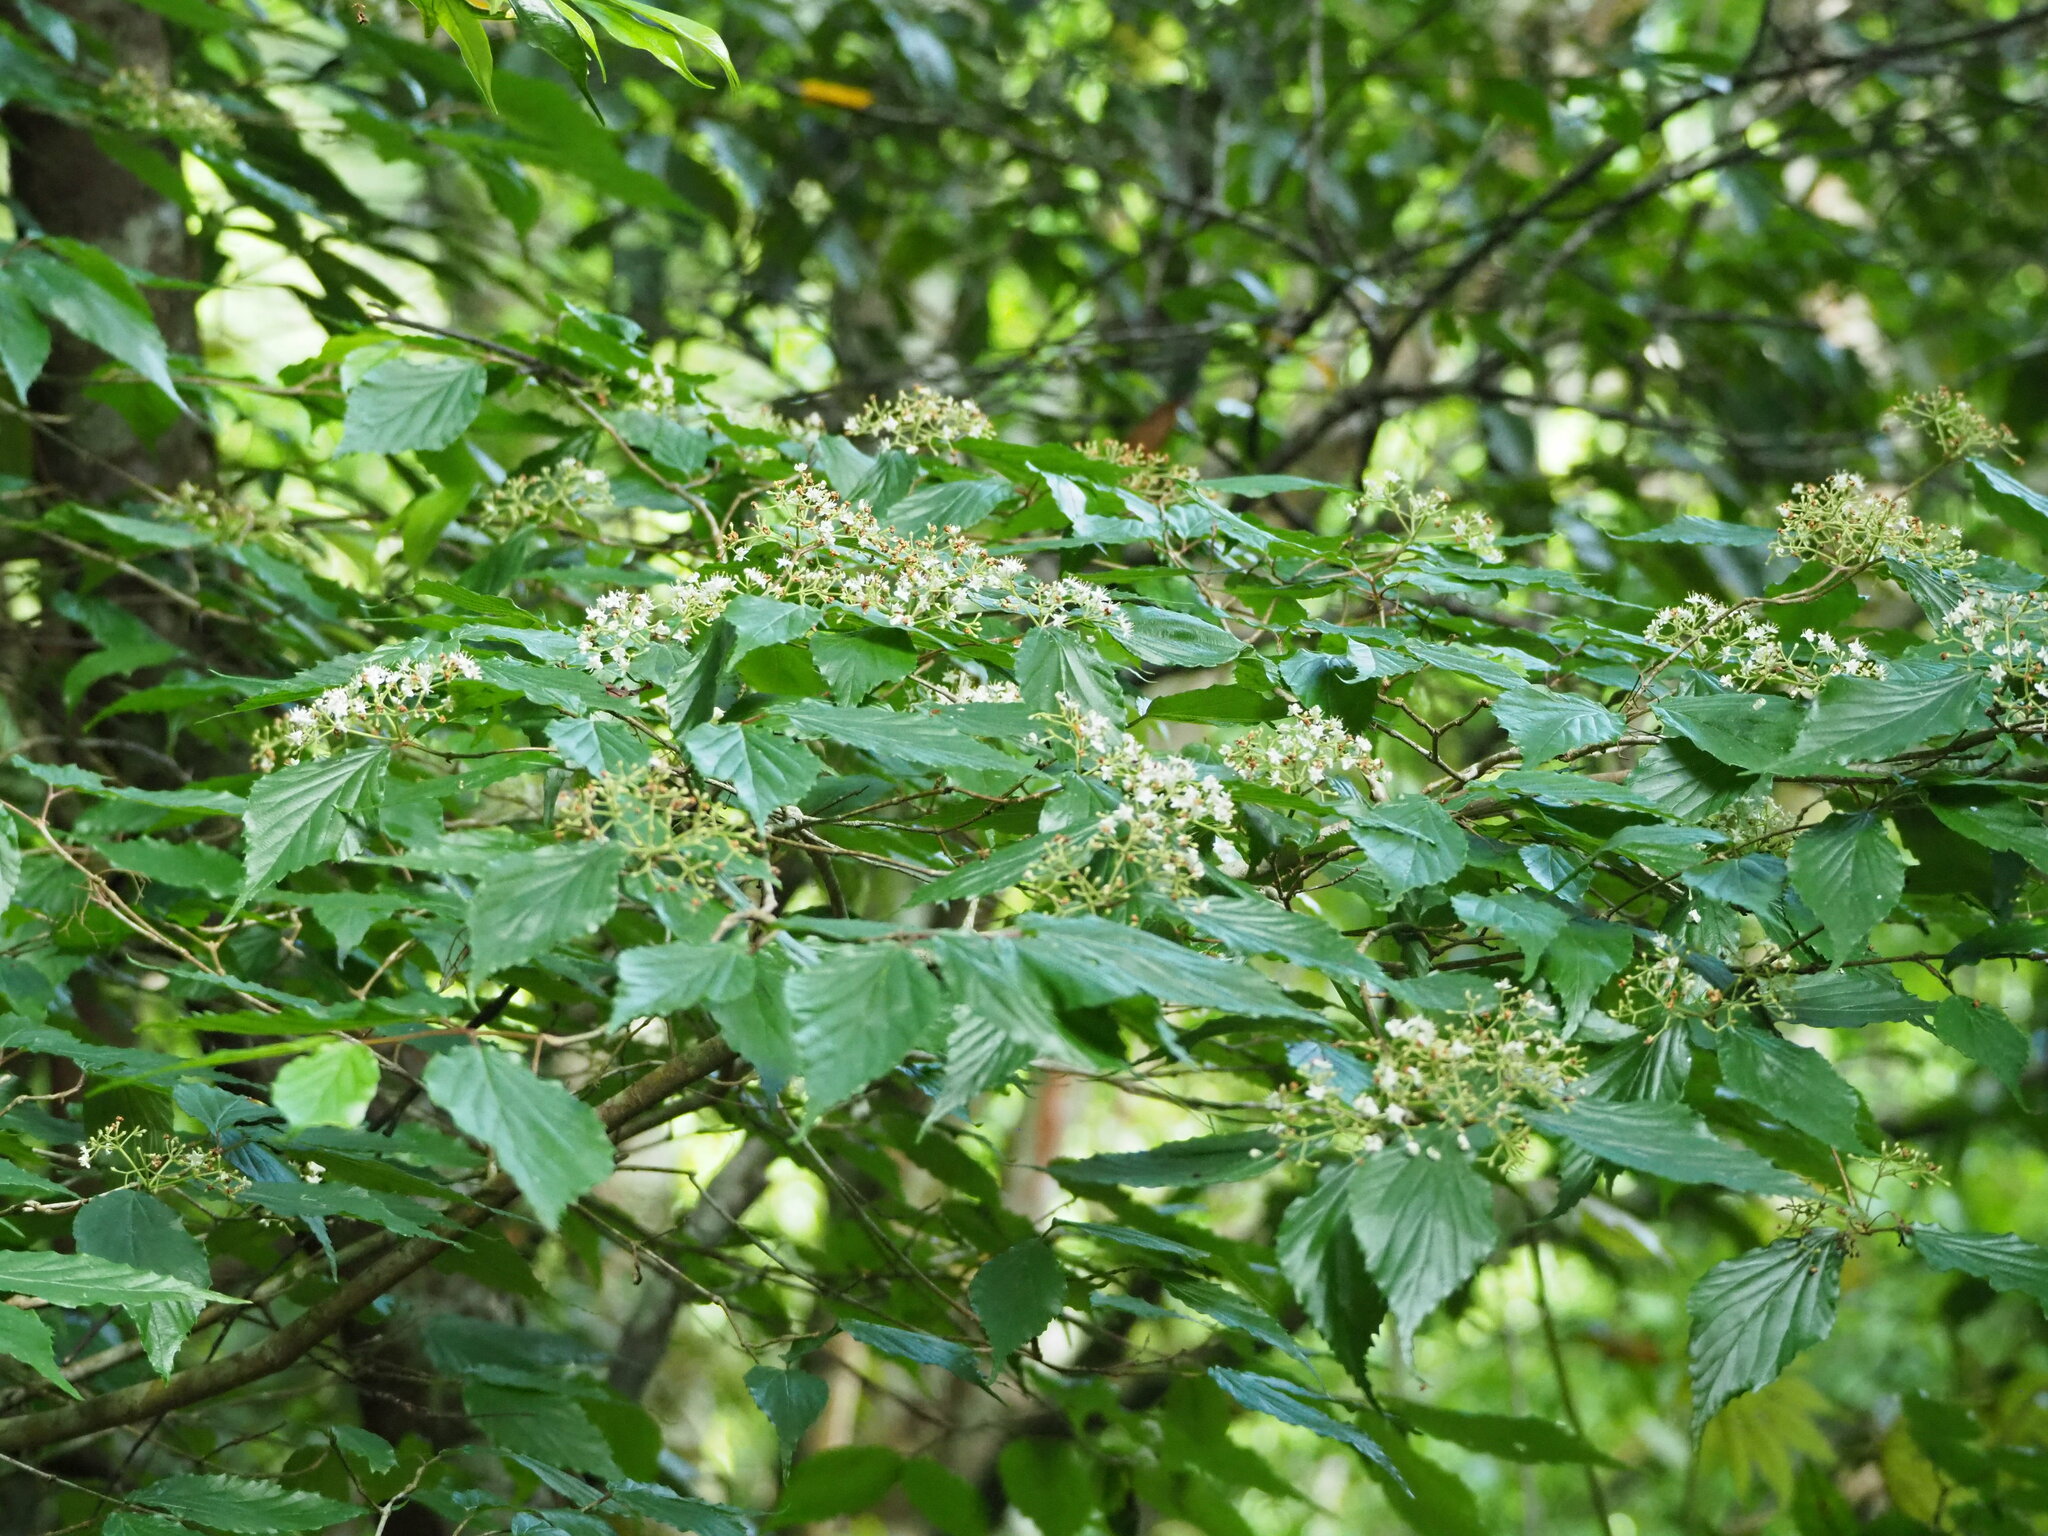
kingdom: Plantae
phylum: Tracheophyta
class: Magnoliopsida
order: Dipsacales
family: Viburnaceae
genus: Viburnum
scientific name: Viburnum luzonicum
